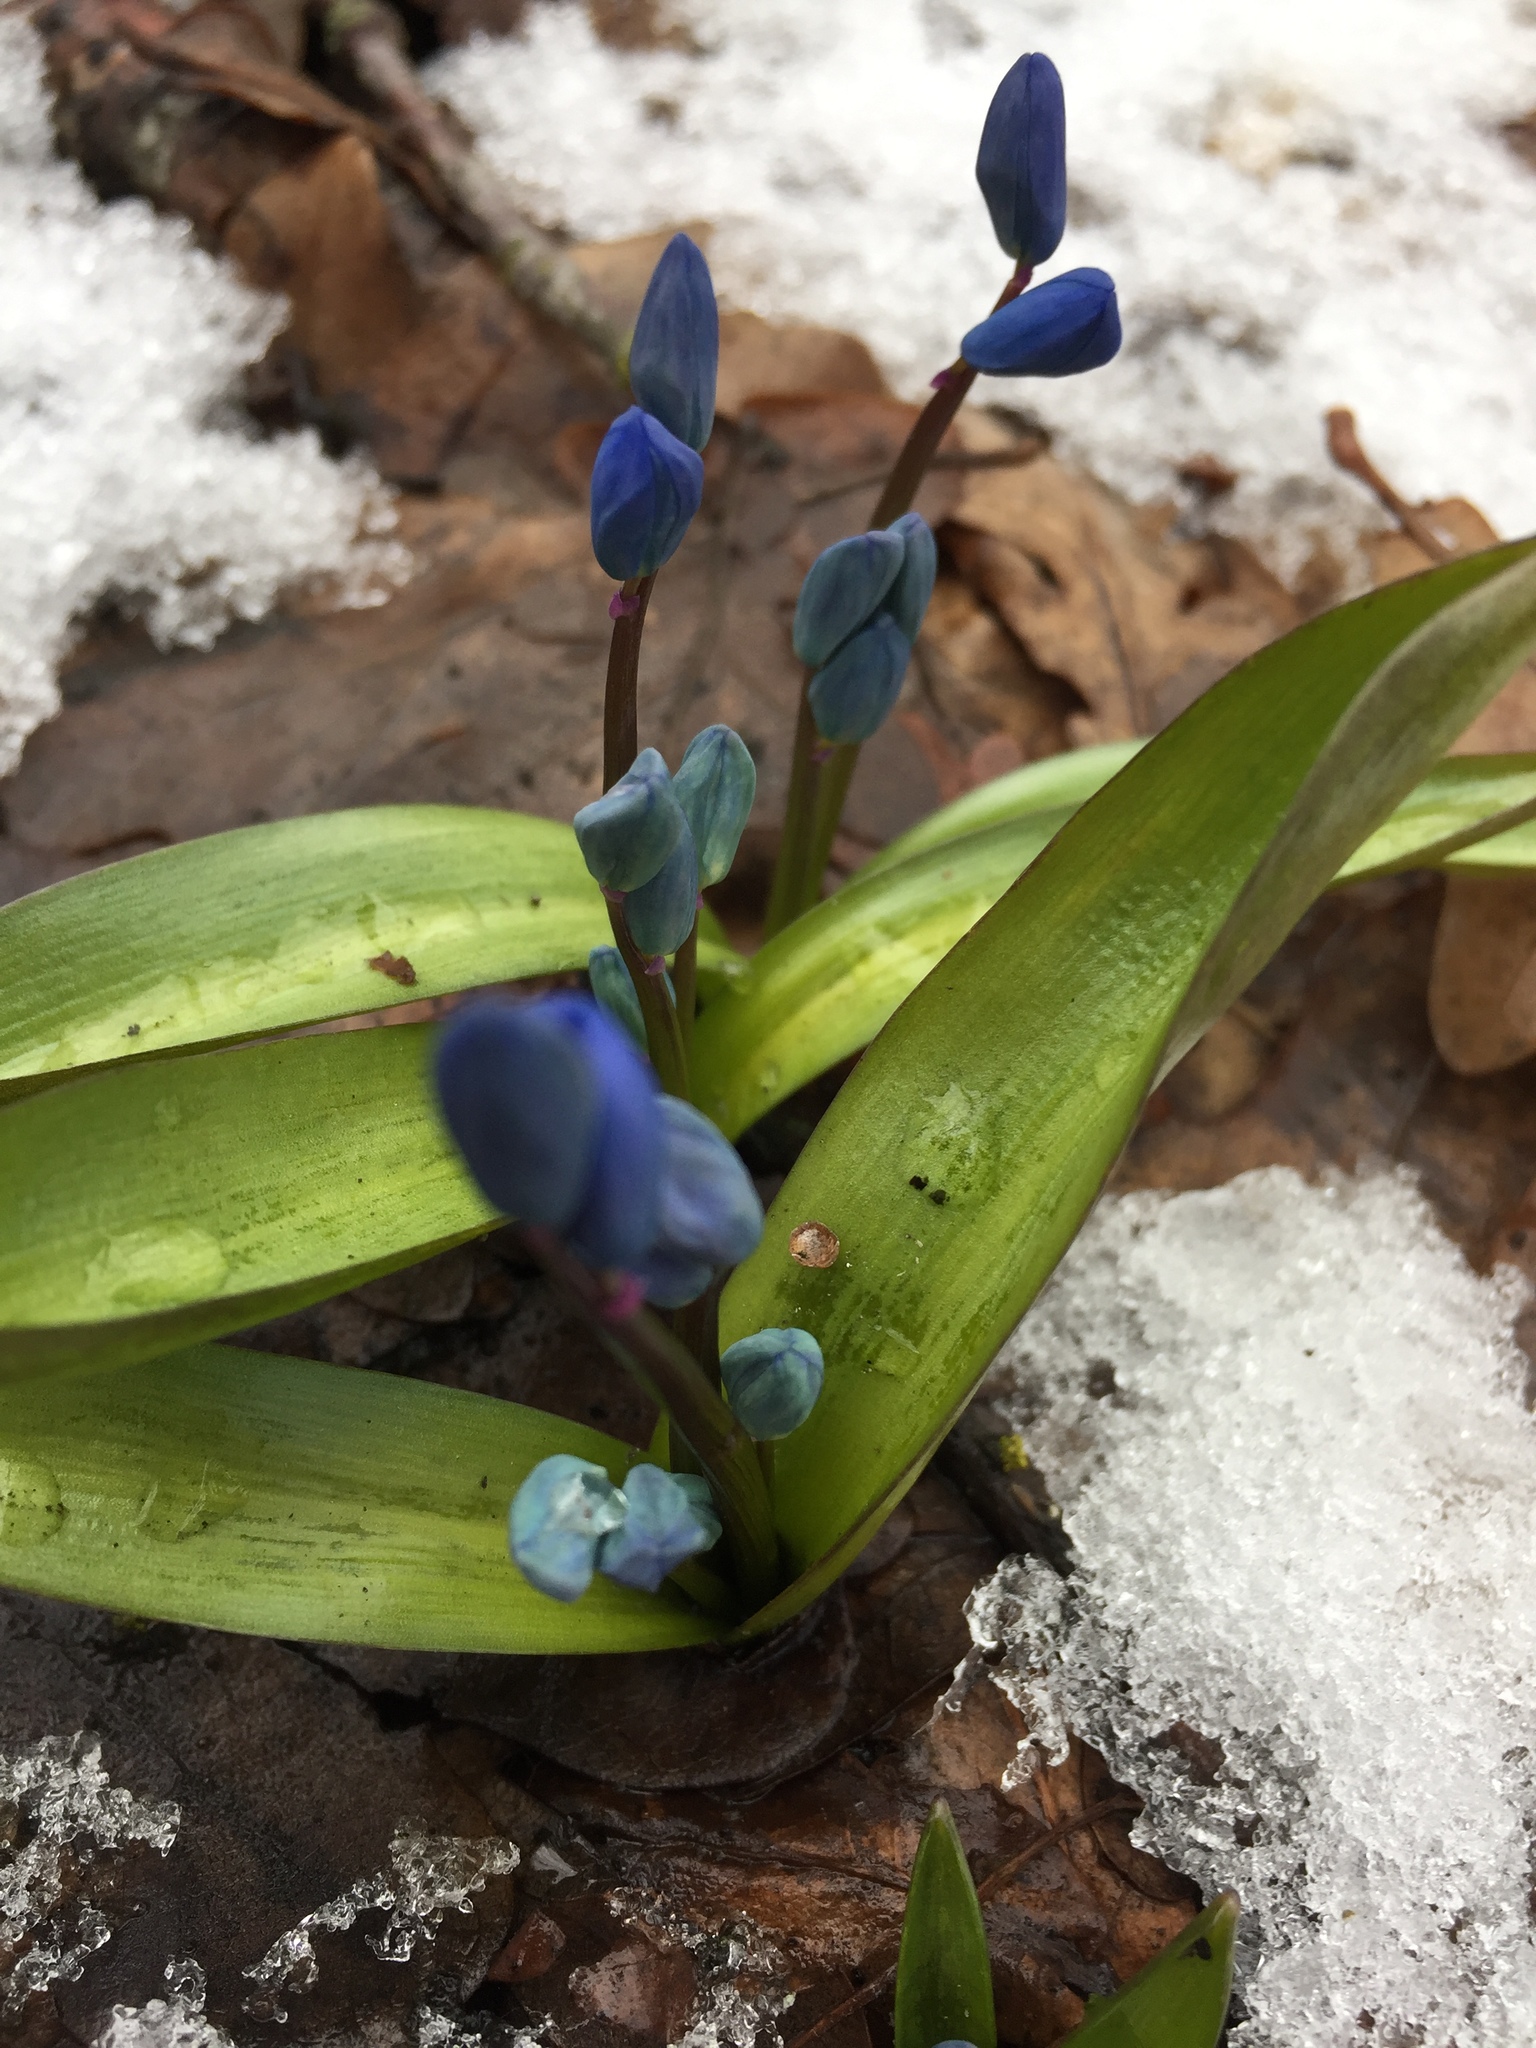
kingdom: Plantae
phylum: Tracheophyta
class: Liliopsida
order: Asparagales
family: Asparagaceae
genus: Scilla
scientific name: Scilla siberica
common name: Siberian squill
